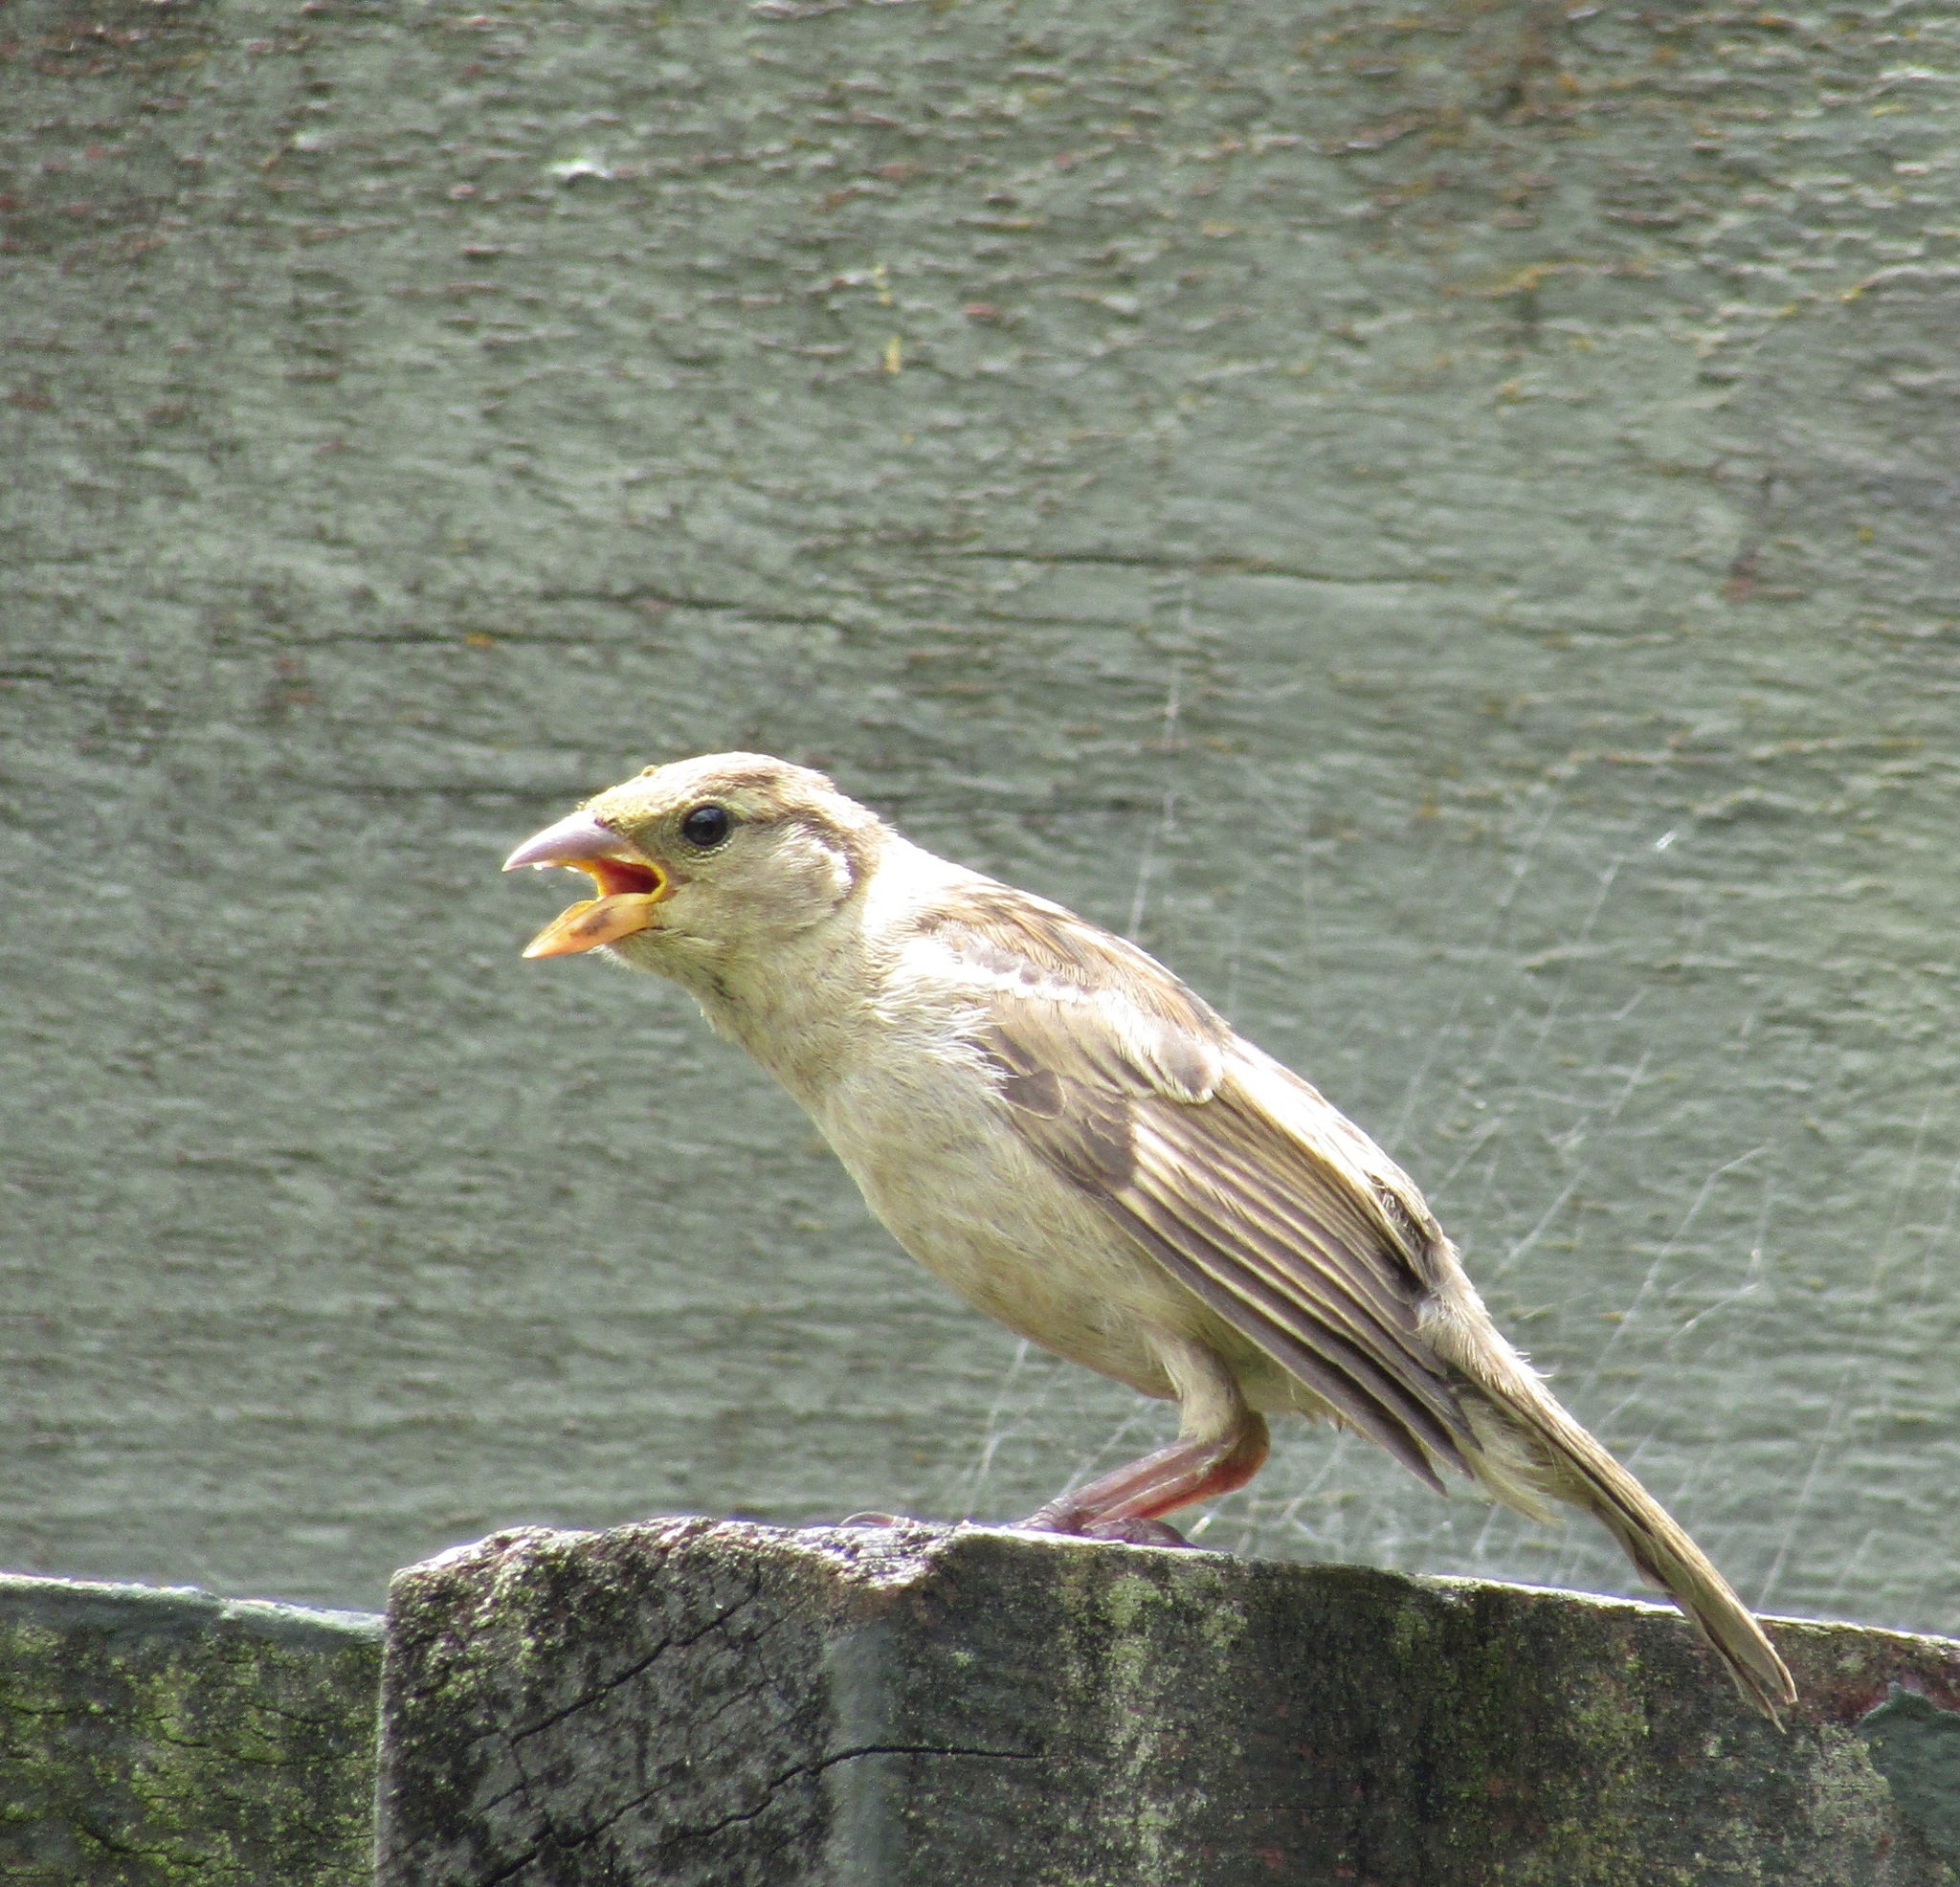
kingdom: Animalia
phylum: Chordata
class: Aves
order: Passeriformes
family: Passeridae
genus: Passer
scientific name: Passer domesticus
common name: House sparrow
